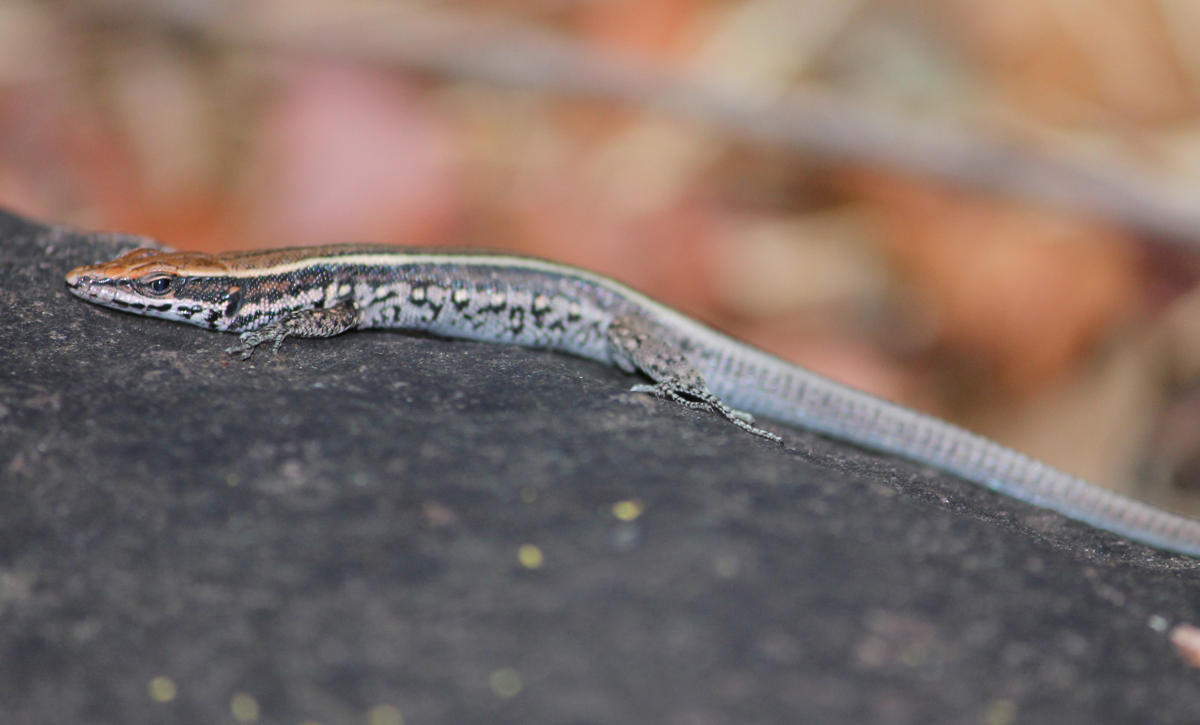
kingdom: Animalia
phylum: Chordata
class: Squamata
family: Lacertidae
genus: Vhembelacerta
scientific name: Vhembelacerta rupicola
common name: Soutpansberg rock lizard
